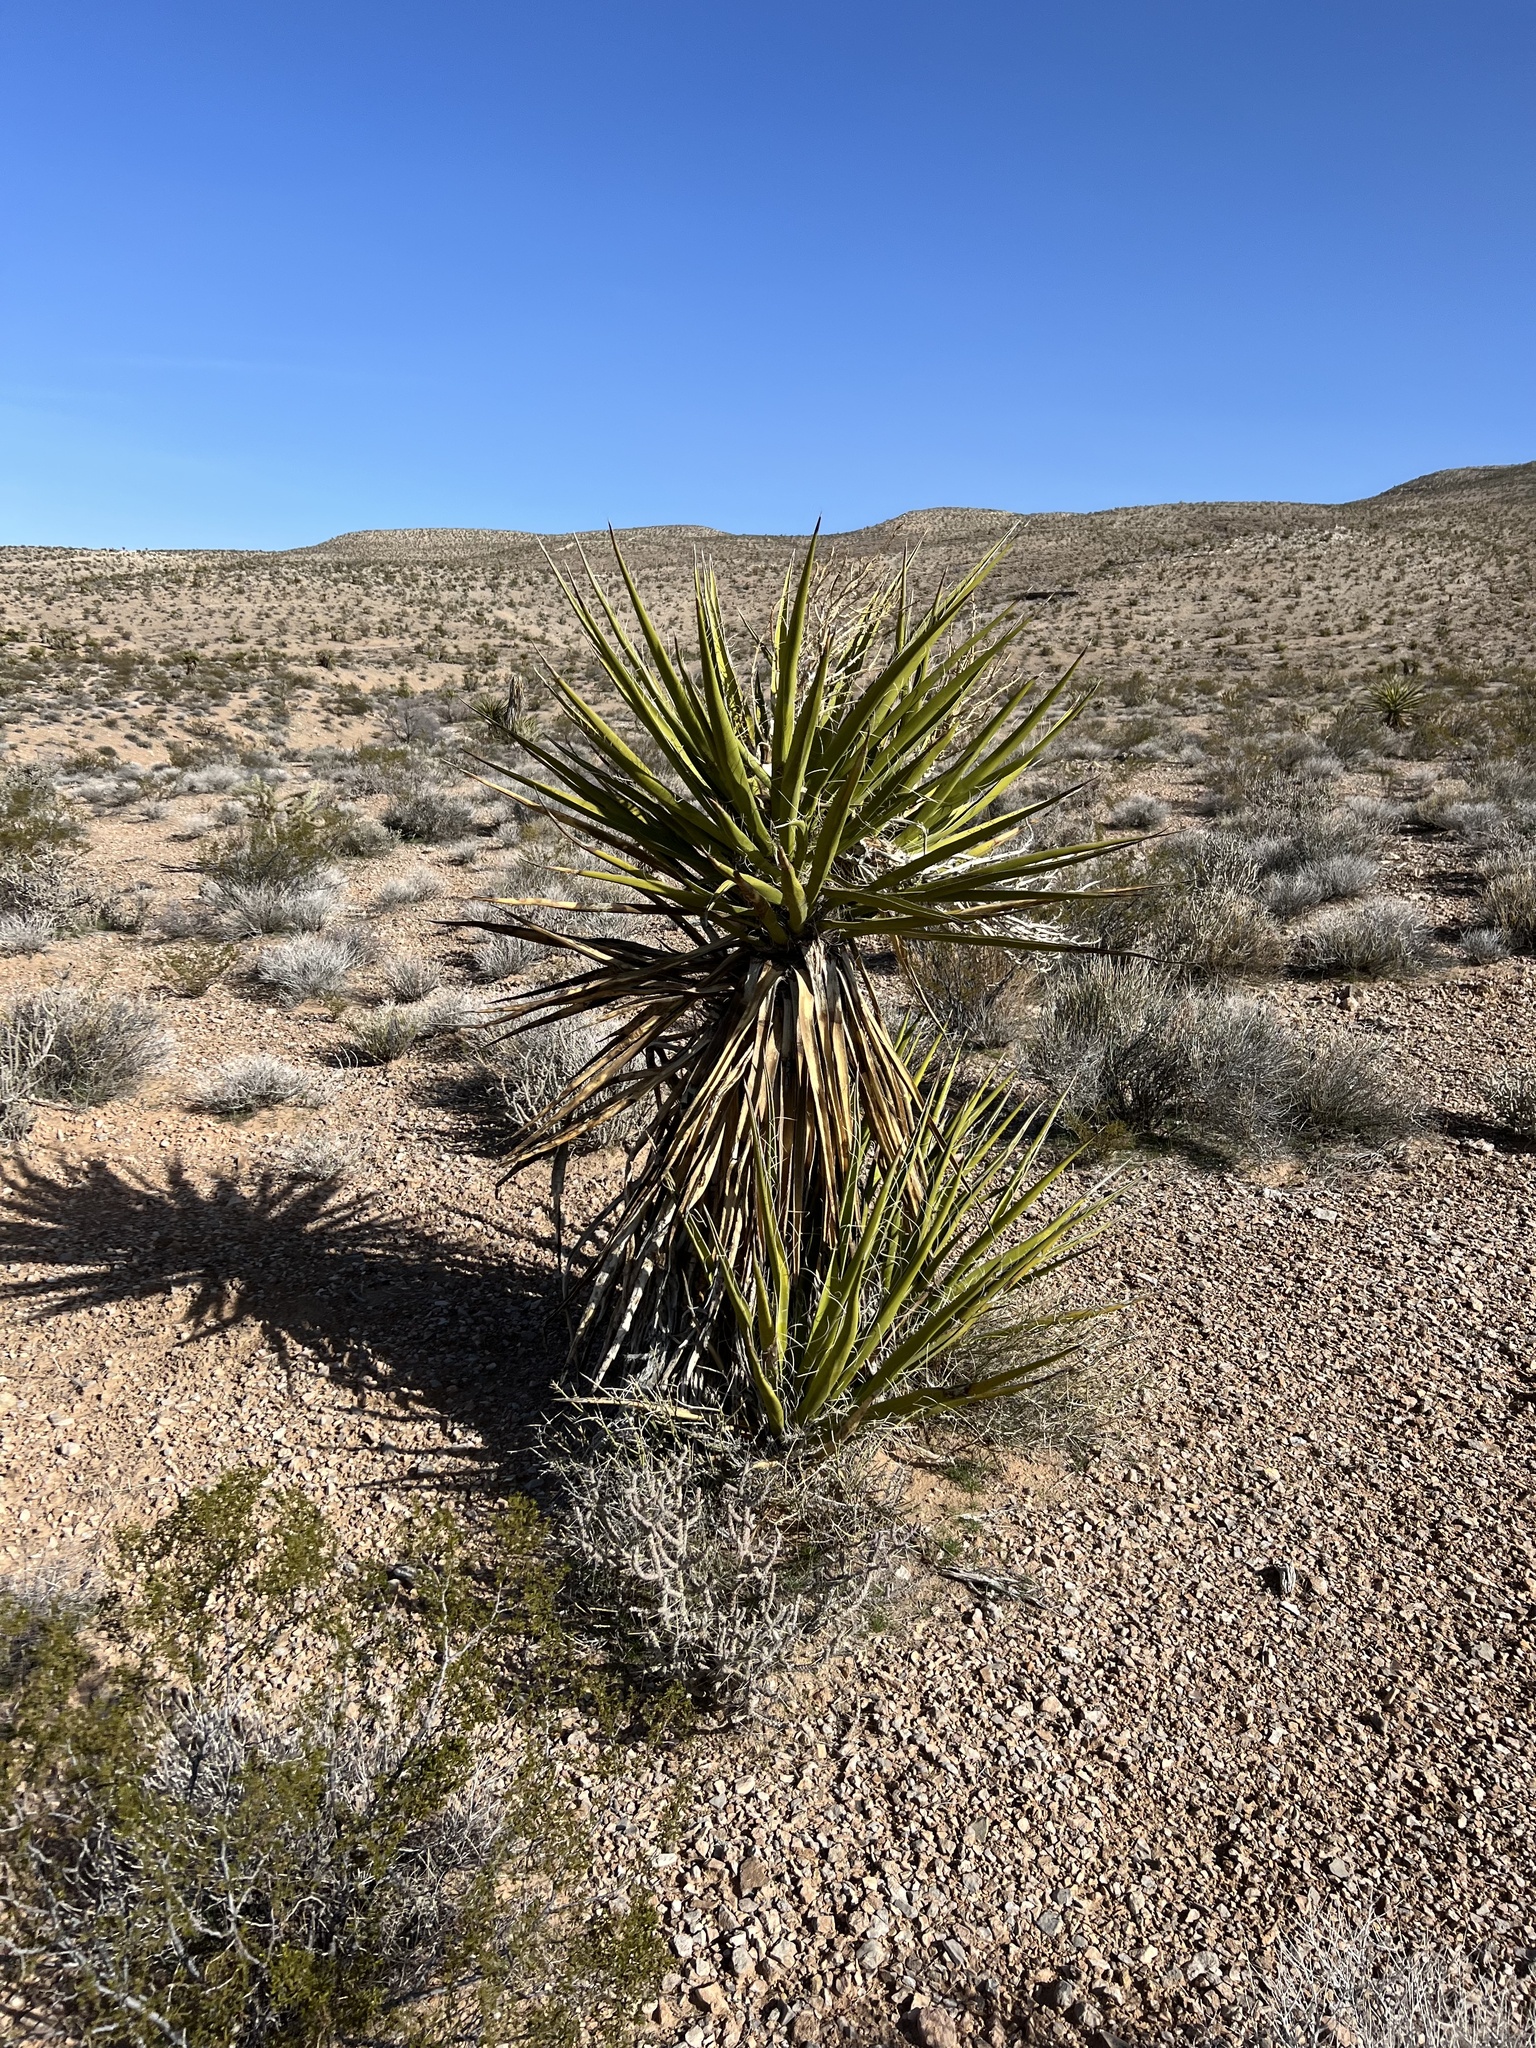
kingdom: Plantae
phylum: Tracheophyta
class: Liliopsida
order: Asparagales
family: Asparagaceae
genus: Yucca
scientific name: Yucca schidigera
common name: Mojave yucca
